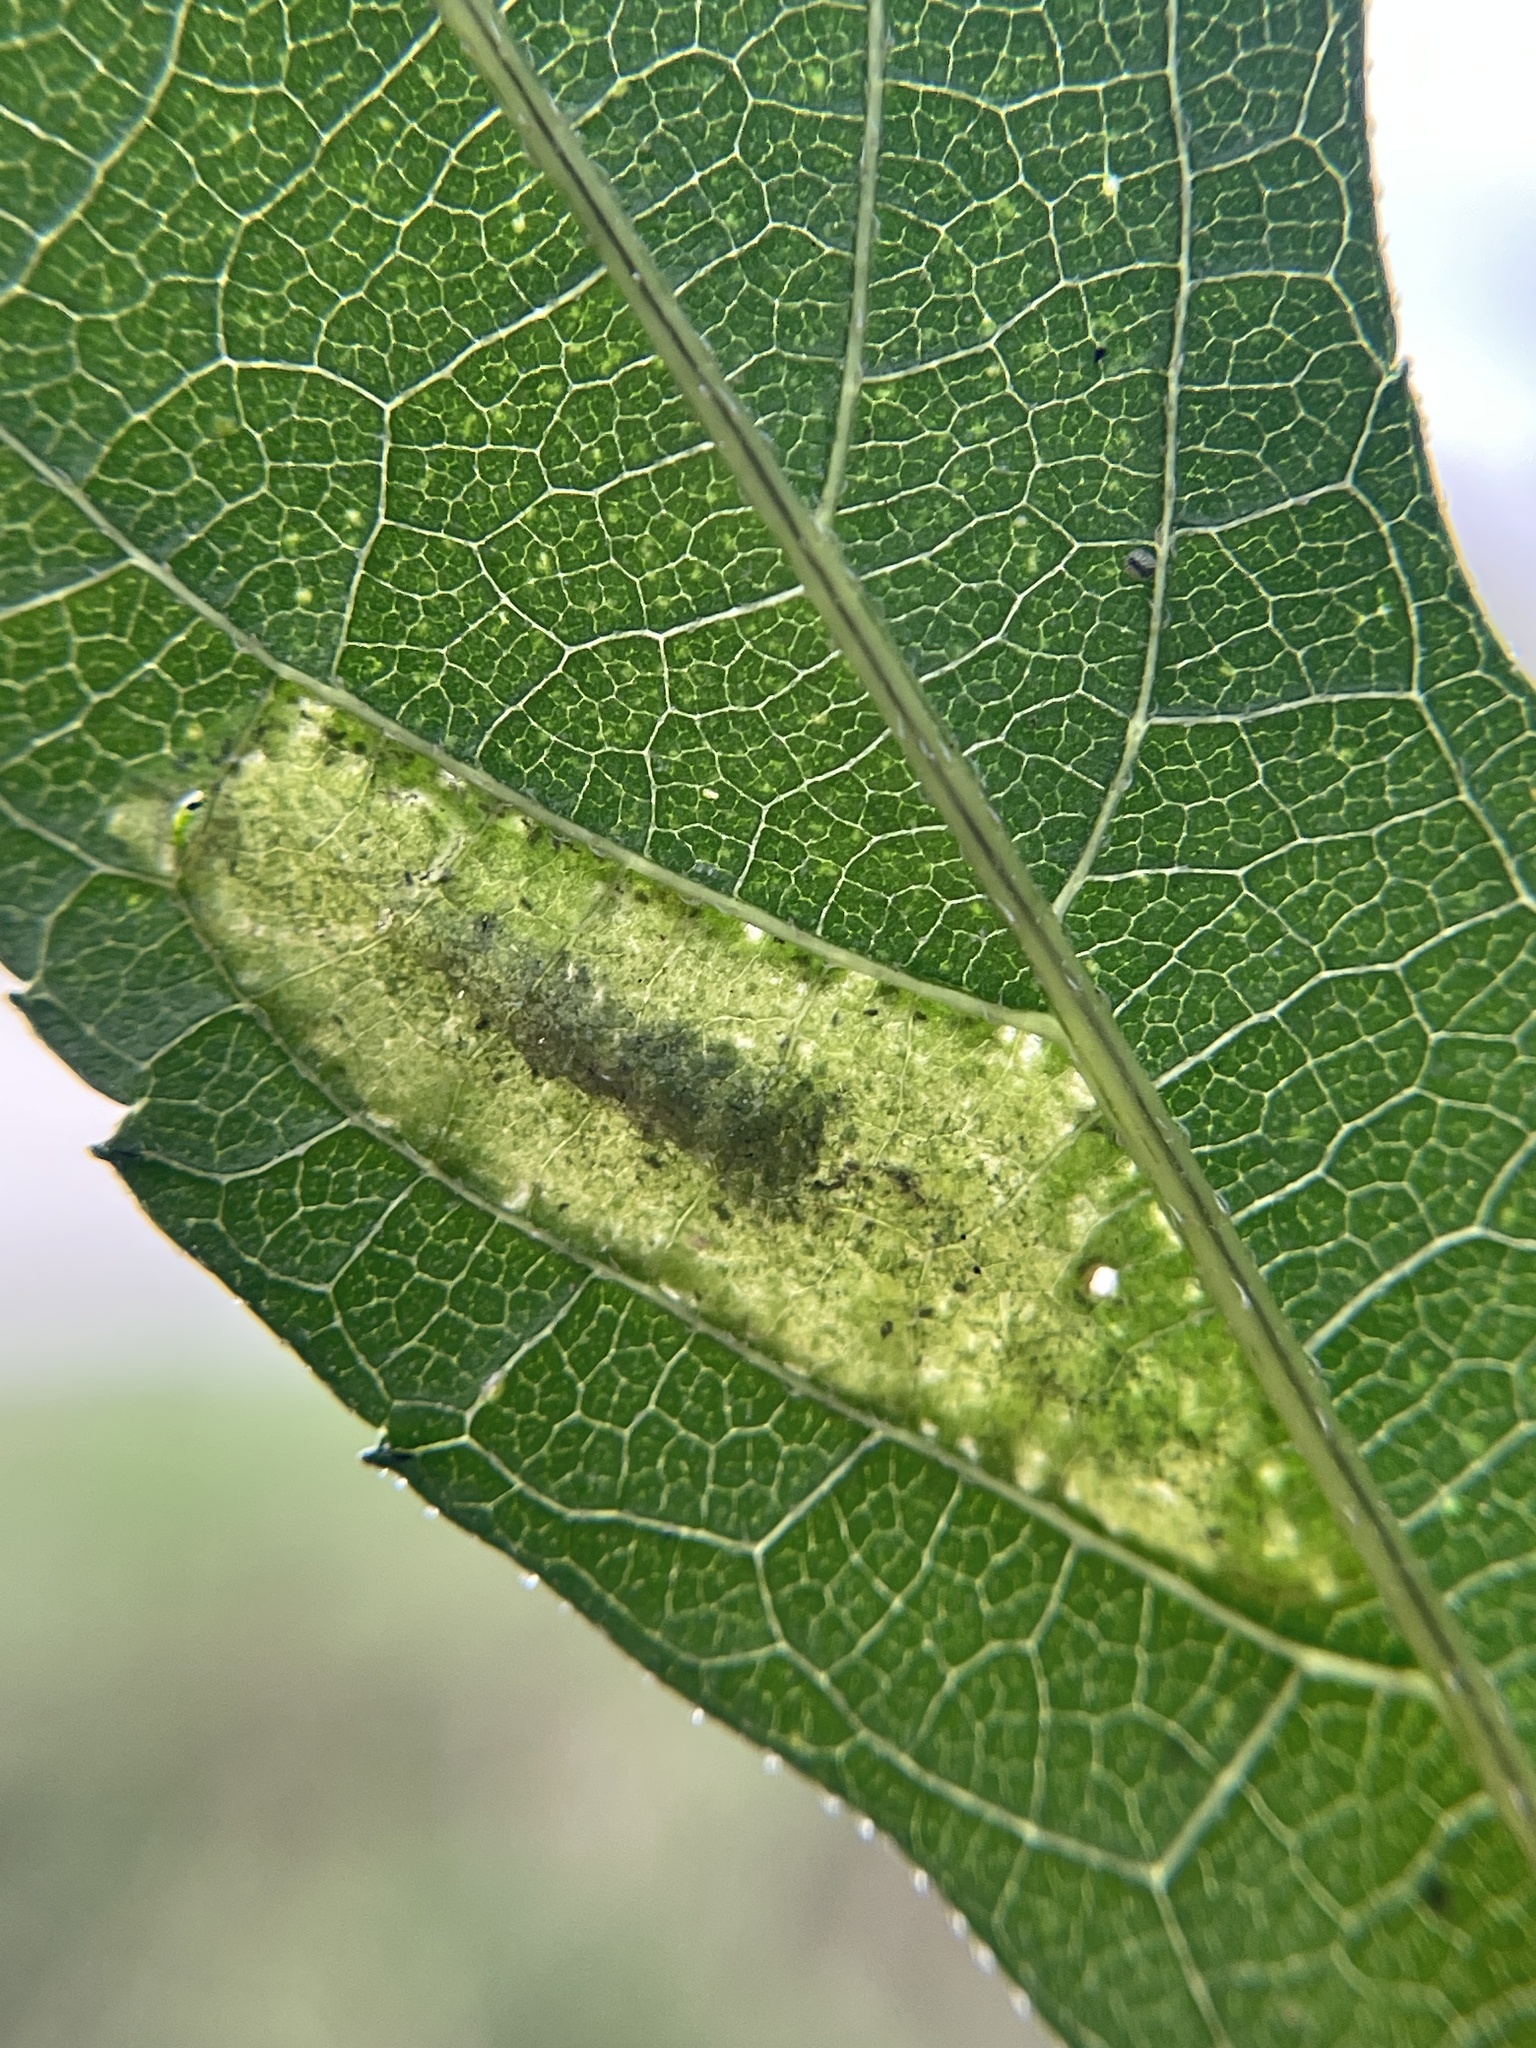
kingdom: Animalia
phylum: Arthropoda
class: Insecta
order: Lepidoptera
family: Gracillariidae
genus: Leucospilapteryx
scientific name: Leucospilapteryx venustella
